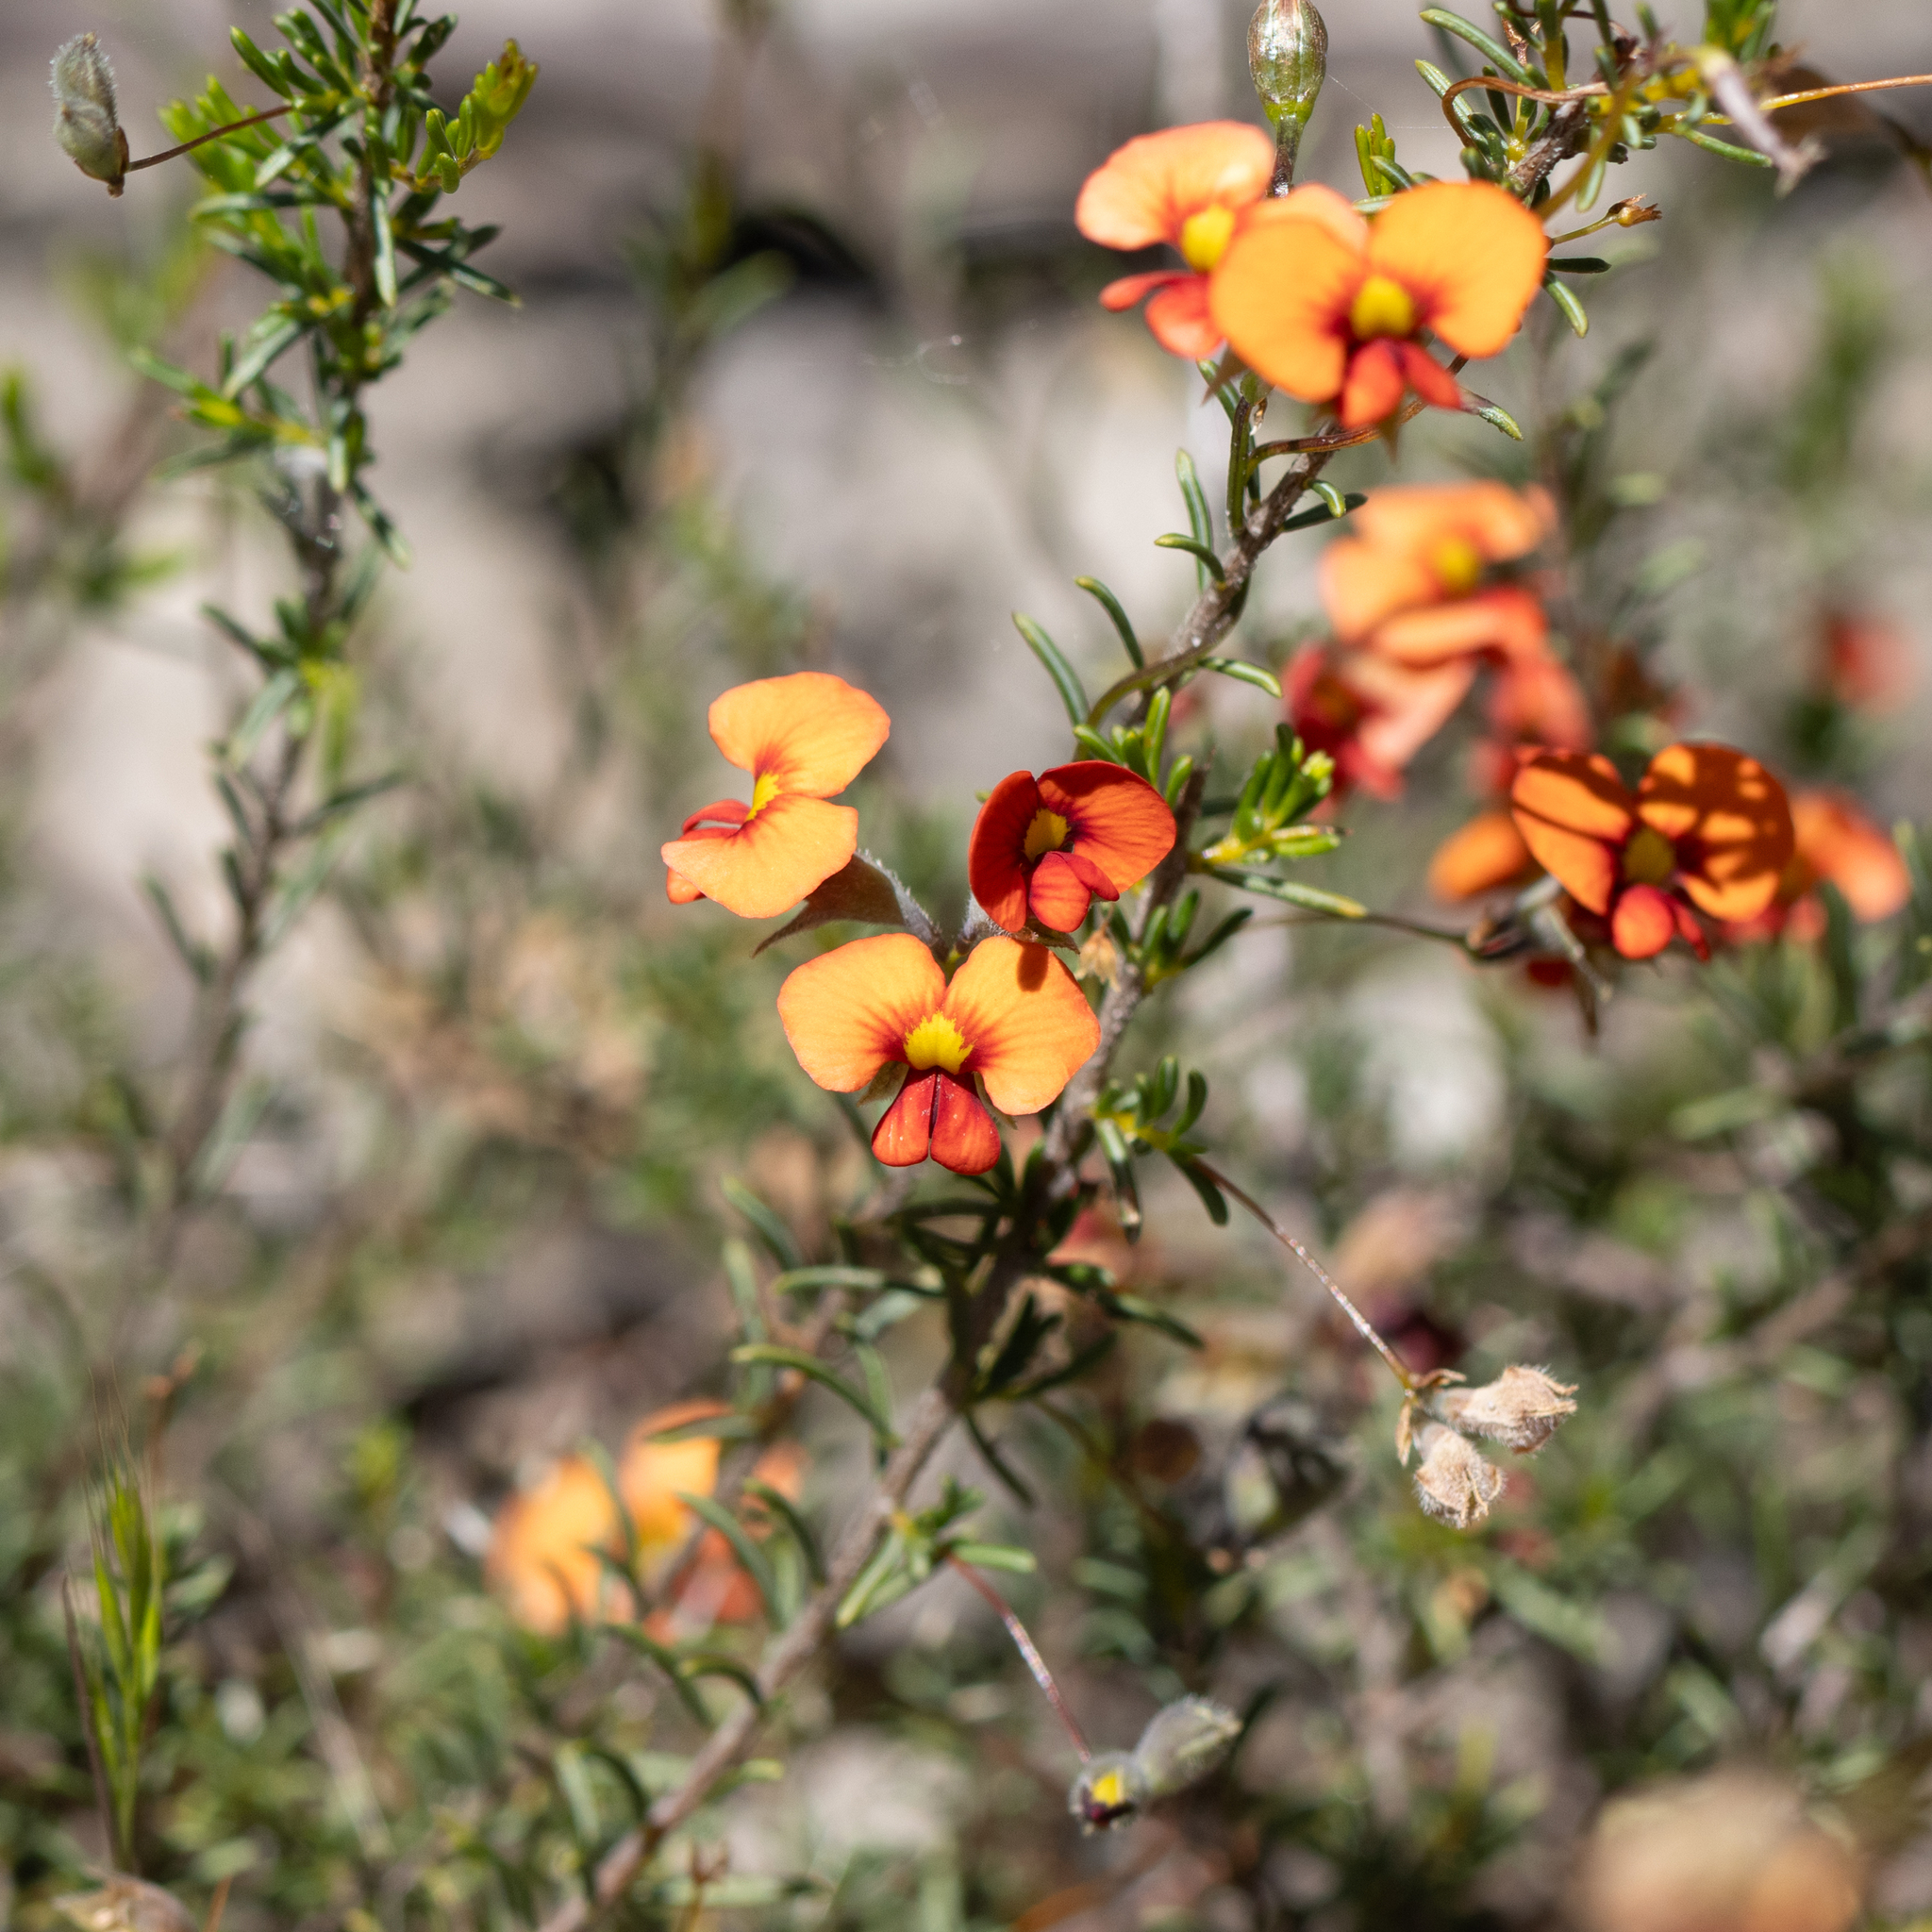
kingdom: Plantae
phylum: Tracheophyta
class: Magnoliopsida
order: Fabales
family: Fabaceae
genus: Dillwynia
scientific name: Dillwynia hispida
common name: Red parrot-pea
